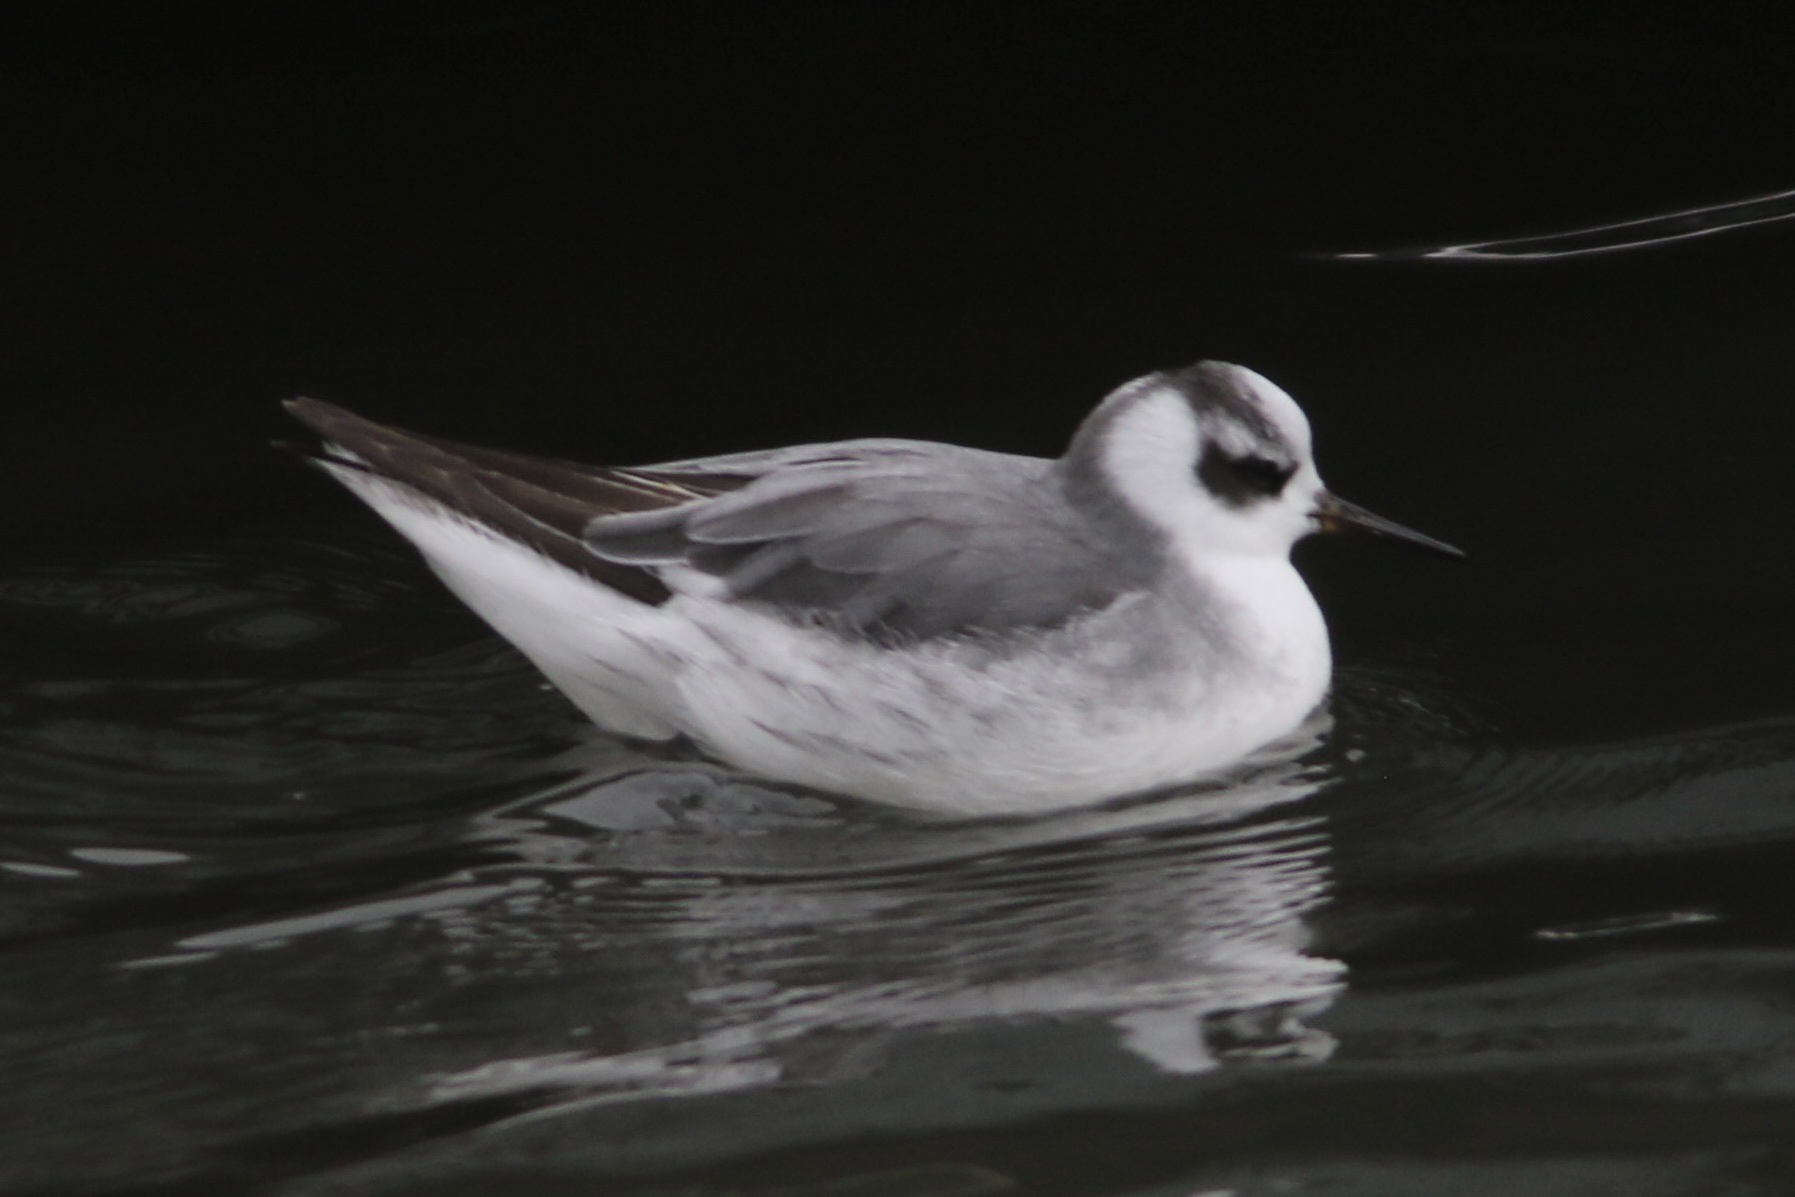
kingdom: Animalia
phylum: Chordata
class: Aves
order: Charadriiformes
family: Scolopacidae
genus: Phalaropus
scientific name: Phalaropus fulicarius
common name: Red phalarope
